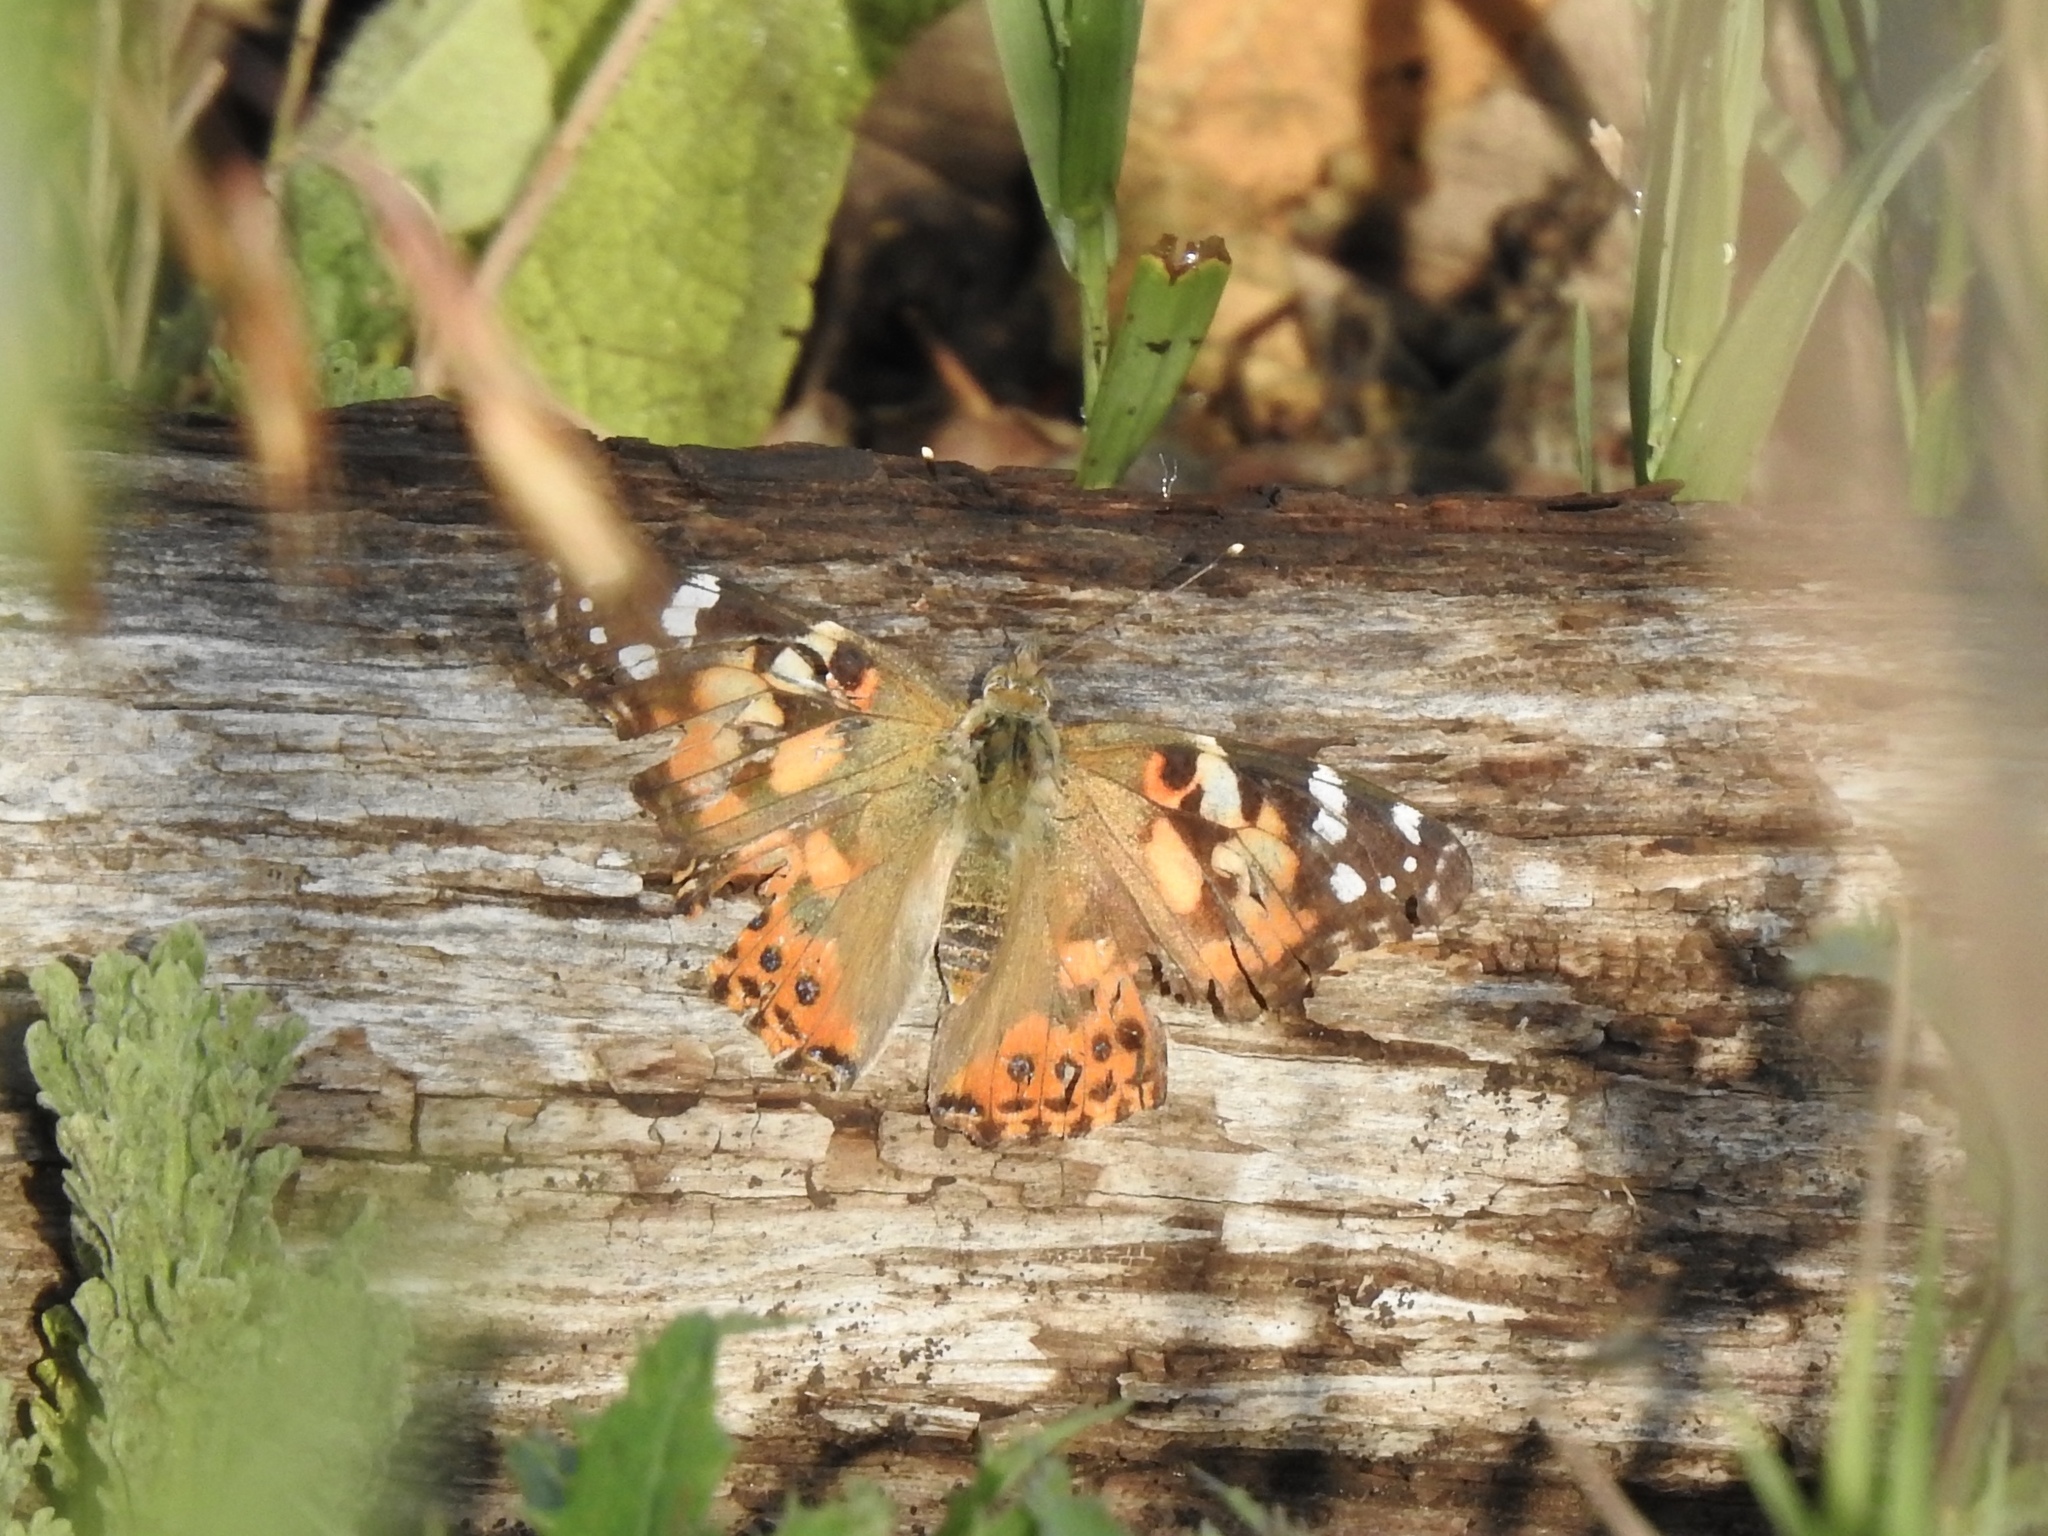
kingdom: Animalia
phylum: Arthropoda
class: Insecta
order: Lepidoptera
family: Nymphalidae
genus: Vanessa
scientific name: Vanessa cardui
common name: Painted lady
